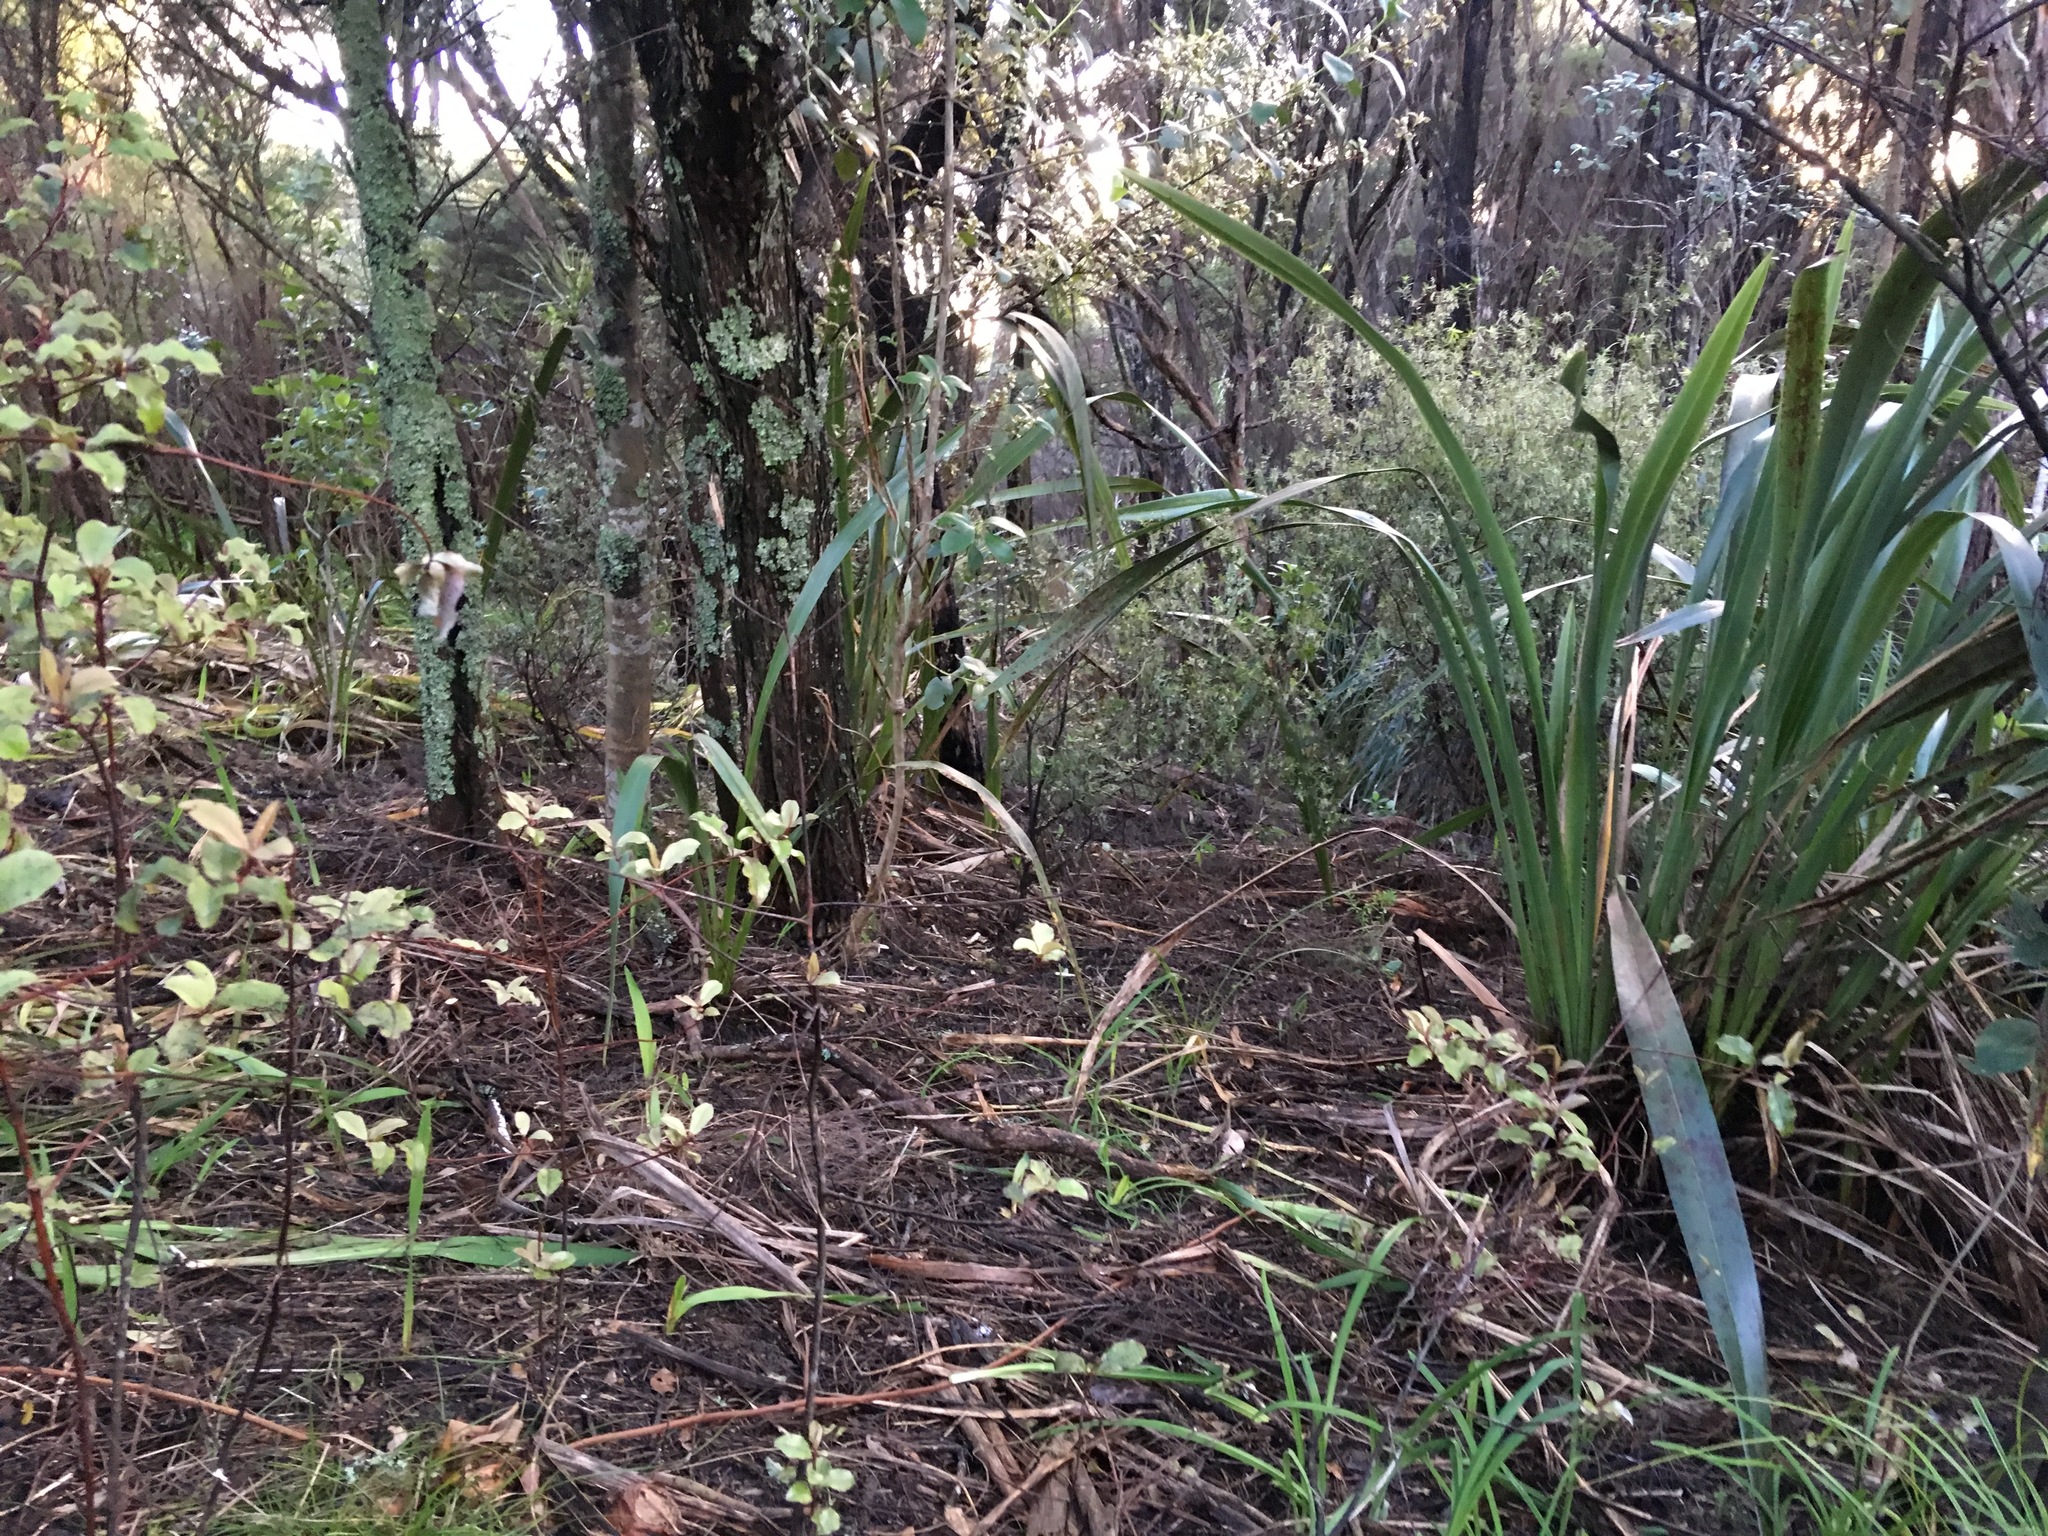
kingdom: Plantae
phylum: Tracheophyta
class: Magnoliopsida
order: Ericales
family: Primulaceae
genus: Myrsine
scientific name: Myrsine australis
